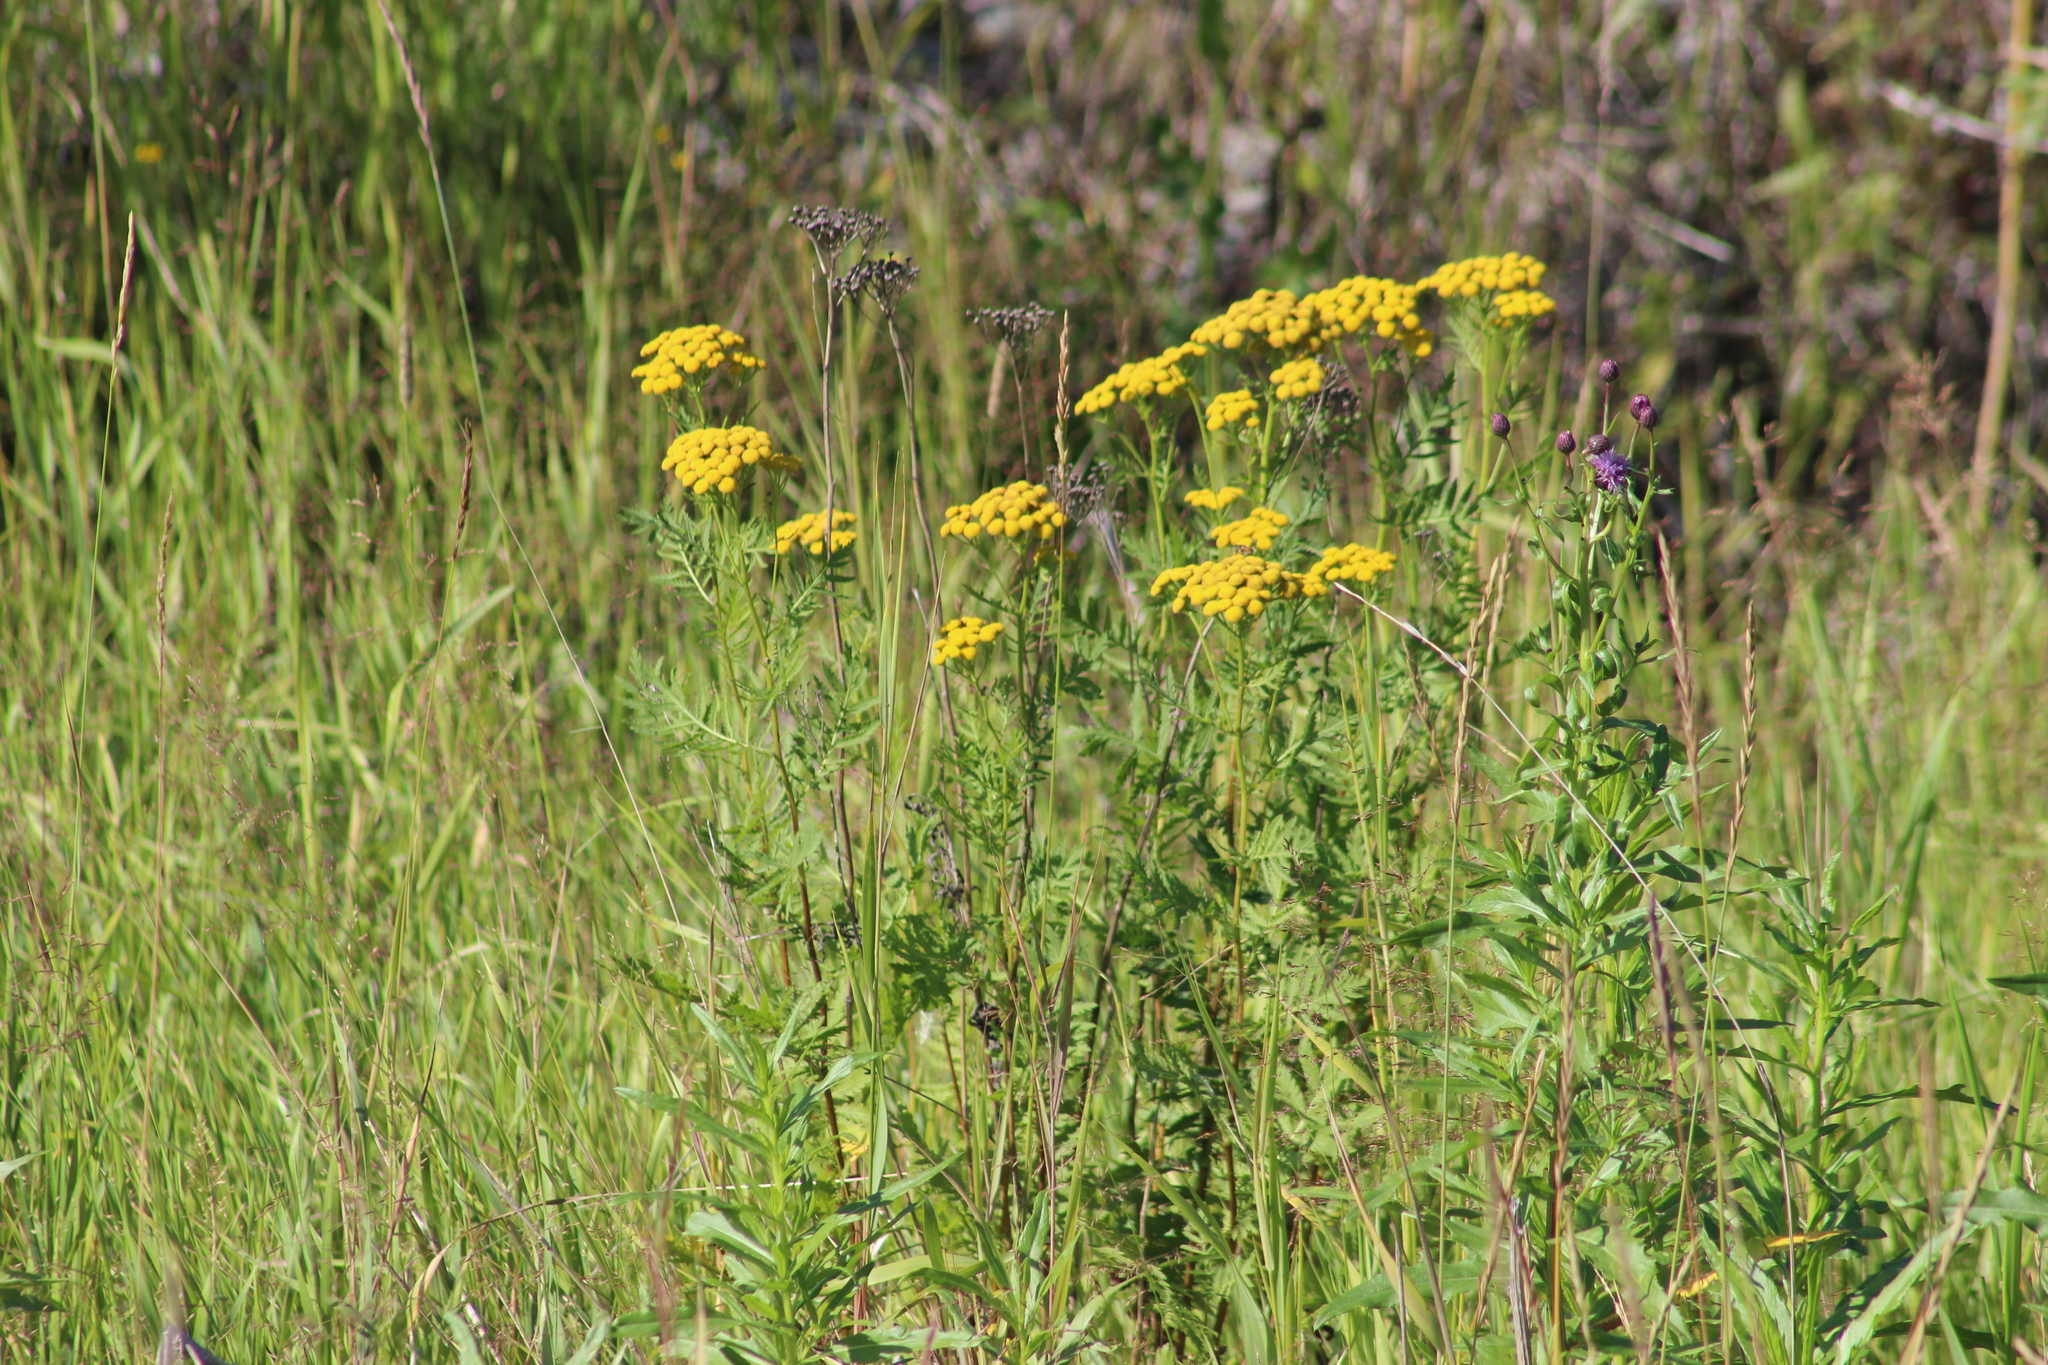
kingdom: Plantae
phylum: Tracheophyta
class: Magnoliopsida
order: Asterales
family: Asteraceae
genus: Tanacetum
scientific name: Tanacetum vulgare
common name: Common tansy
